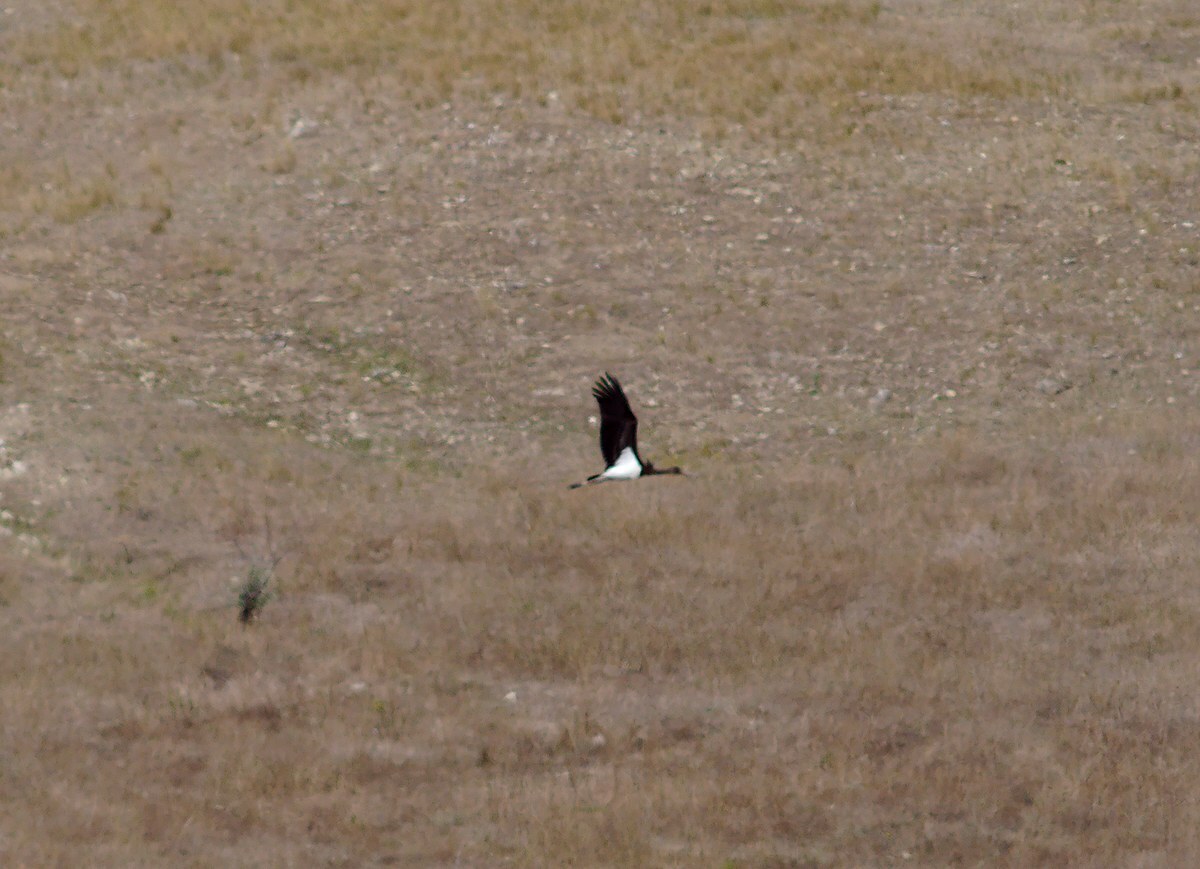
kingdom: Animalia
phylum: Chordata
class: Aves
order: Ciconiiformes
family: Ciconiidae
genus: Ciconia
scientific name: Ciconia nigra
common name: Black stork
